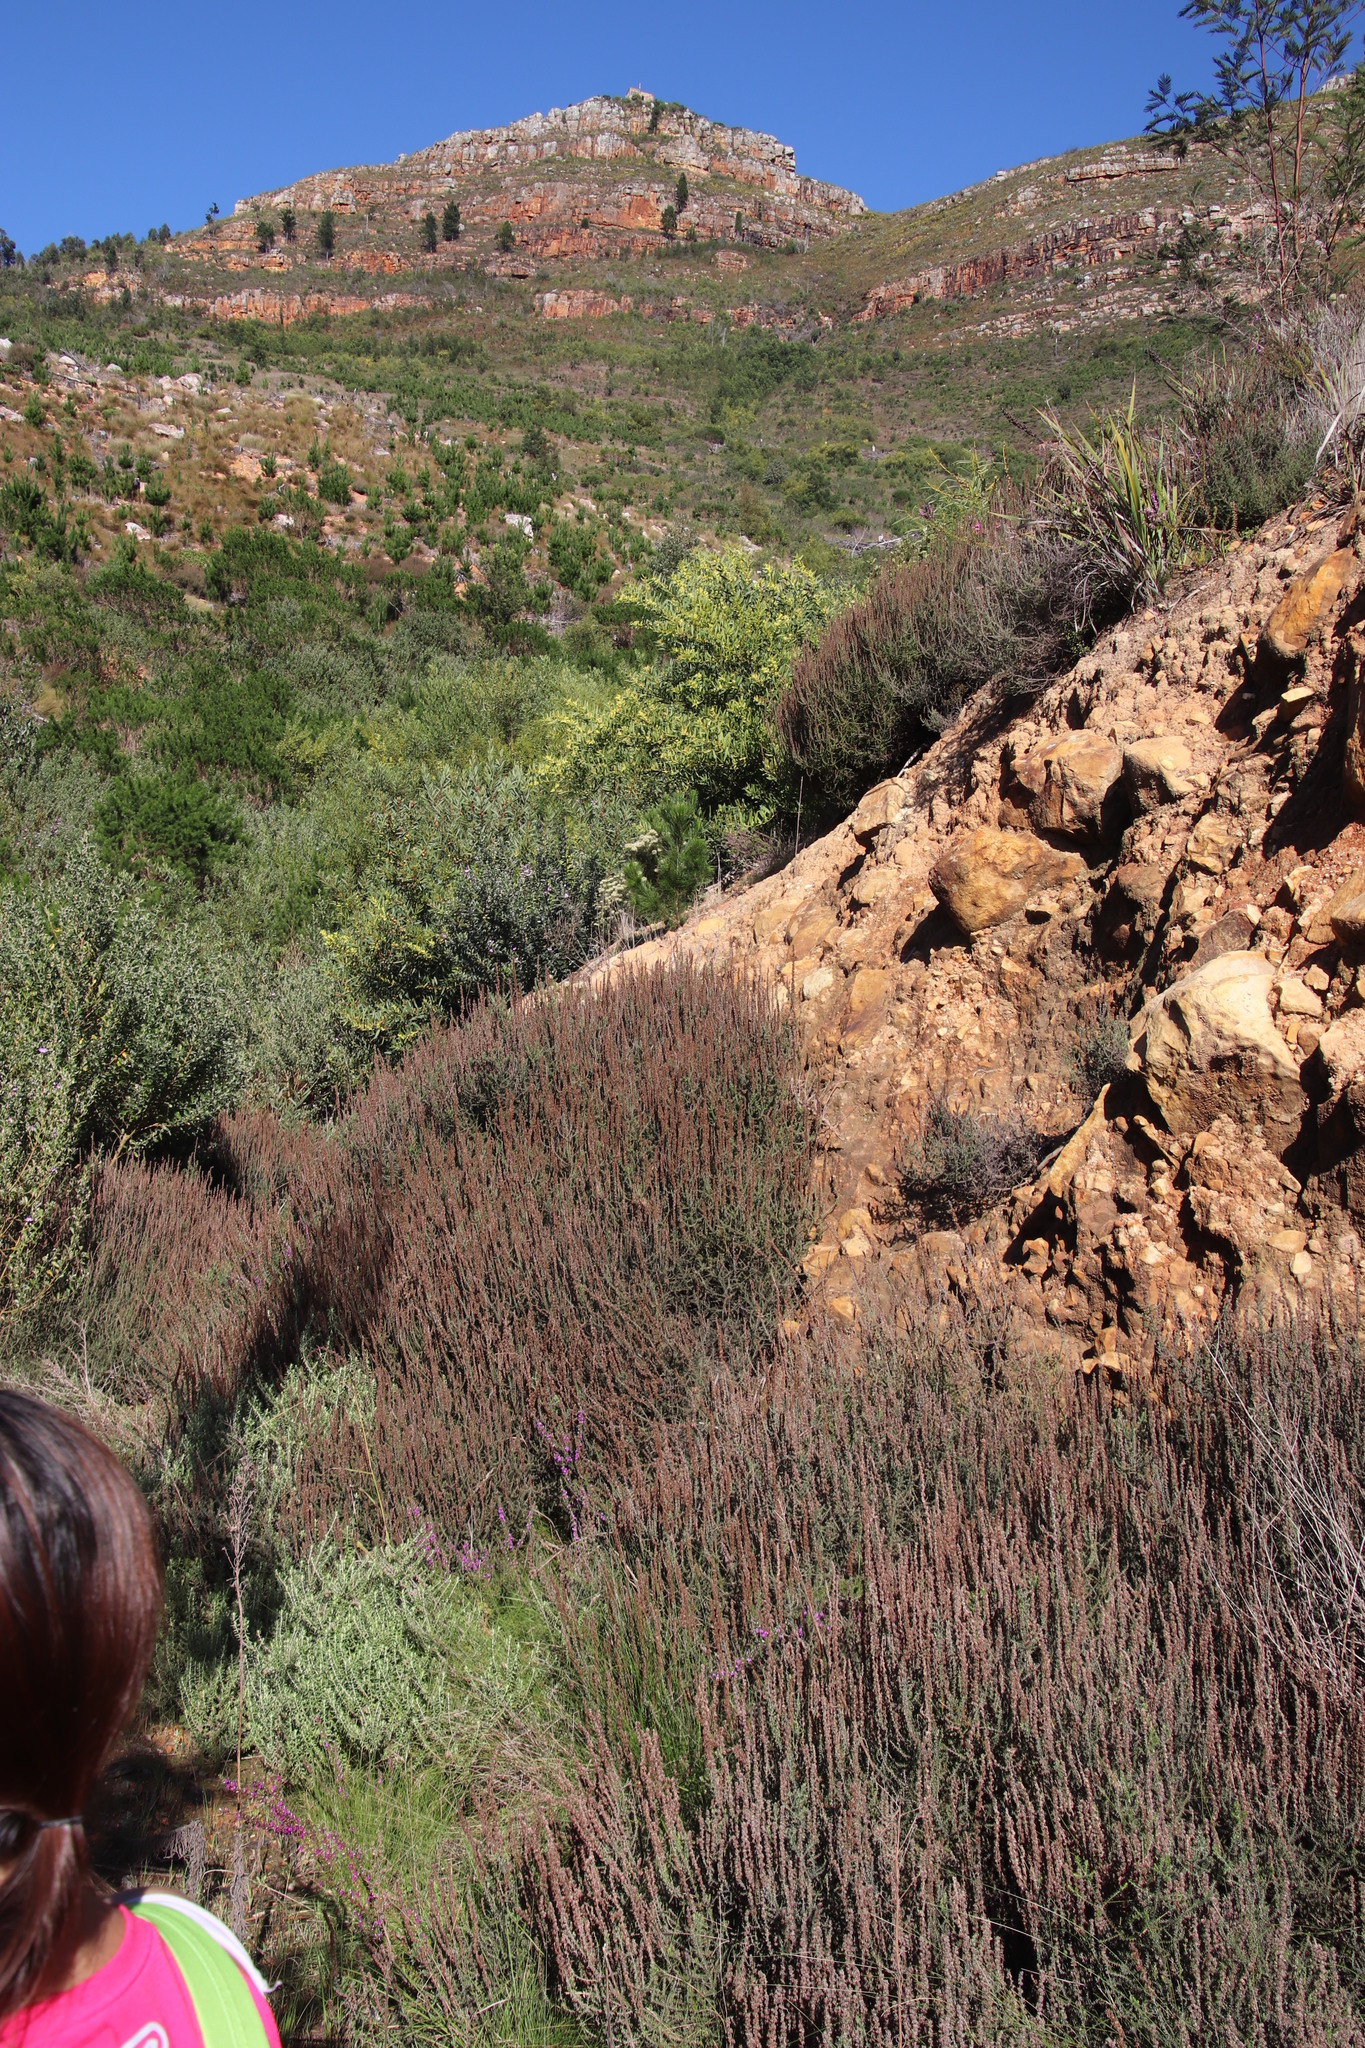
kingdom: Plantae
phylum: Tracheophyta
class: Magnoliopsida
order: Asterales
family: Asteraceae
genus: Seriphium
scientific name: Seriphium cinereum
